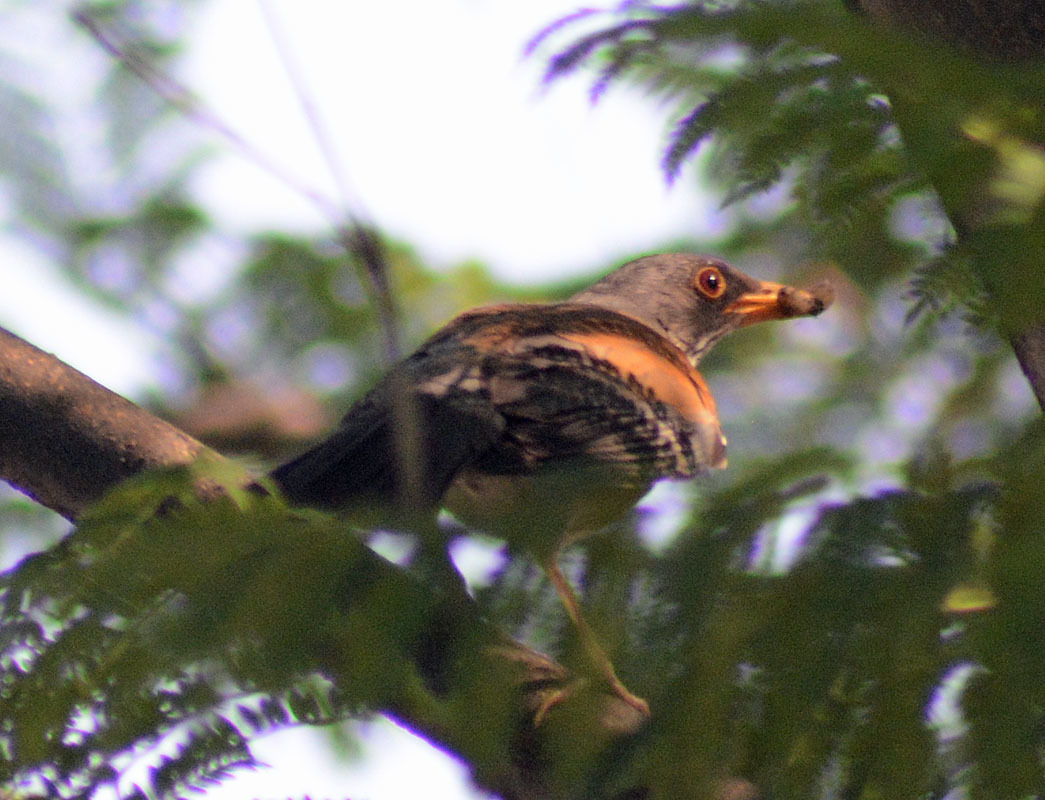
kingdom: Animalia
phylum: Chordata
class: Aves
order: Passeriformes
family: Turdidae
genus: Turdus
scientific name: Turdus rufopalliatus
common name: Rufous-backed robin
